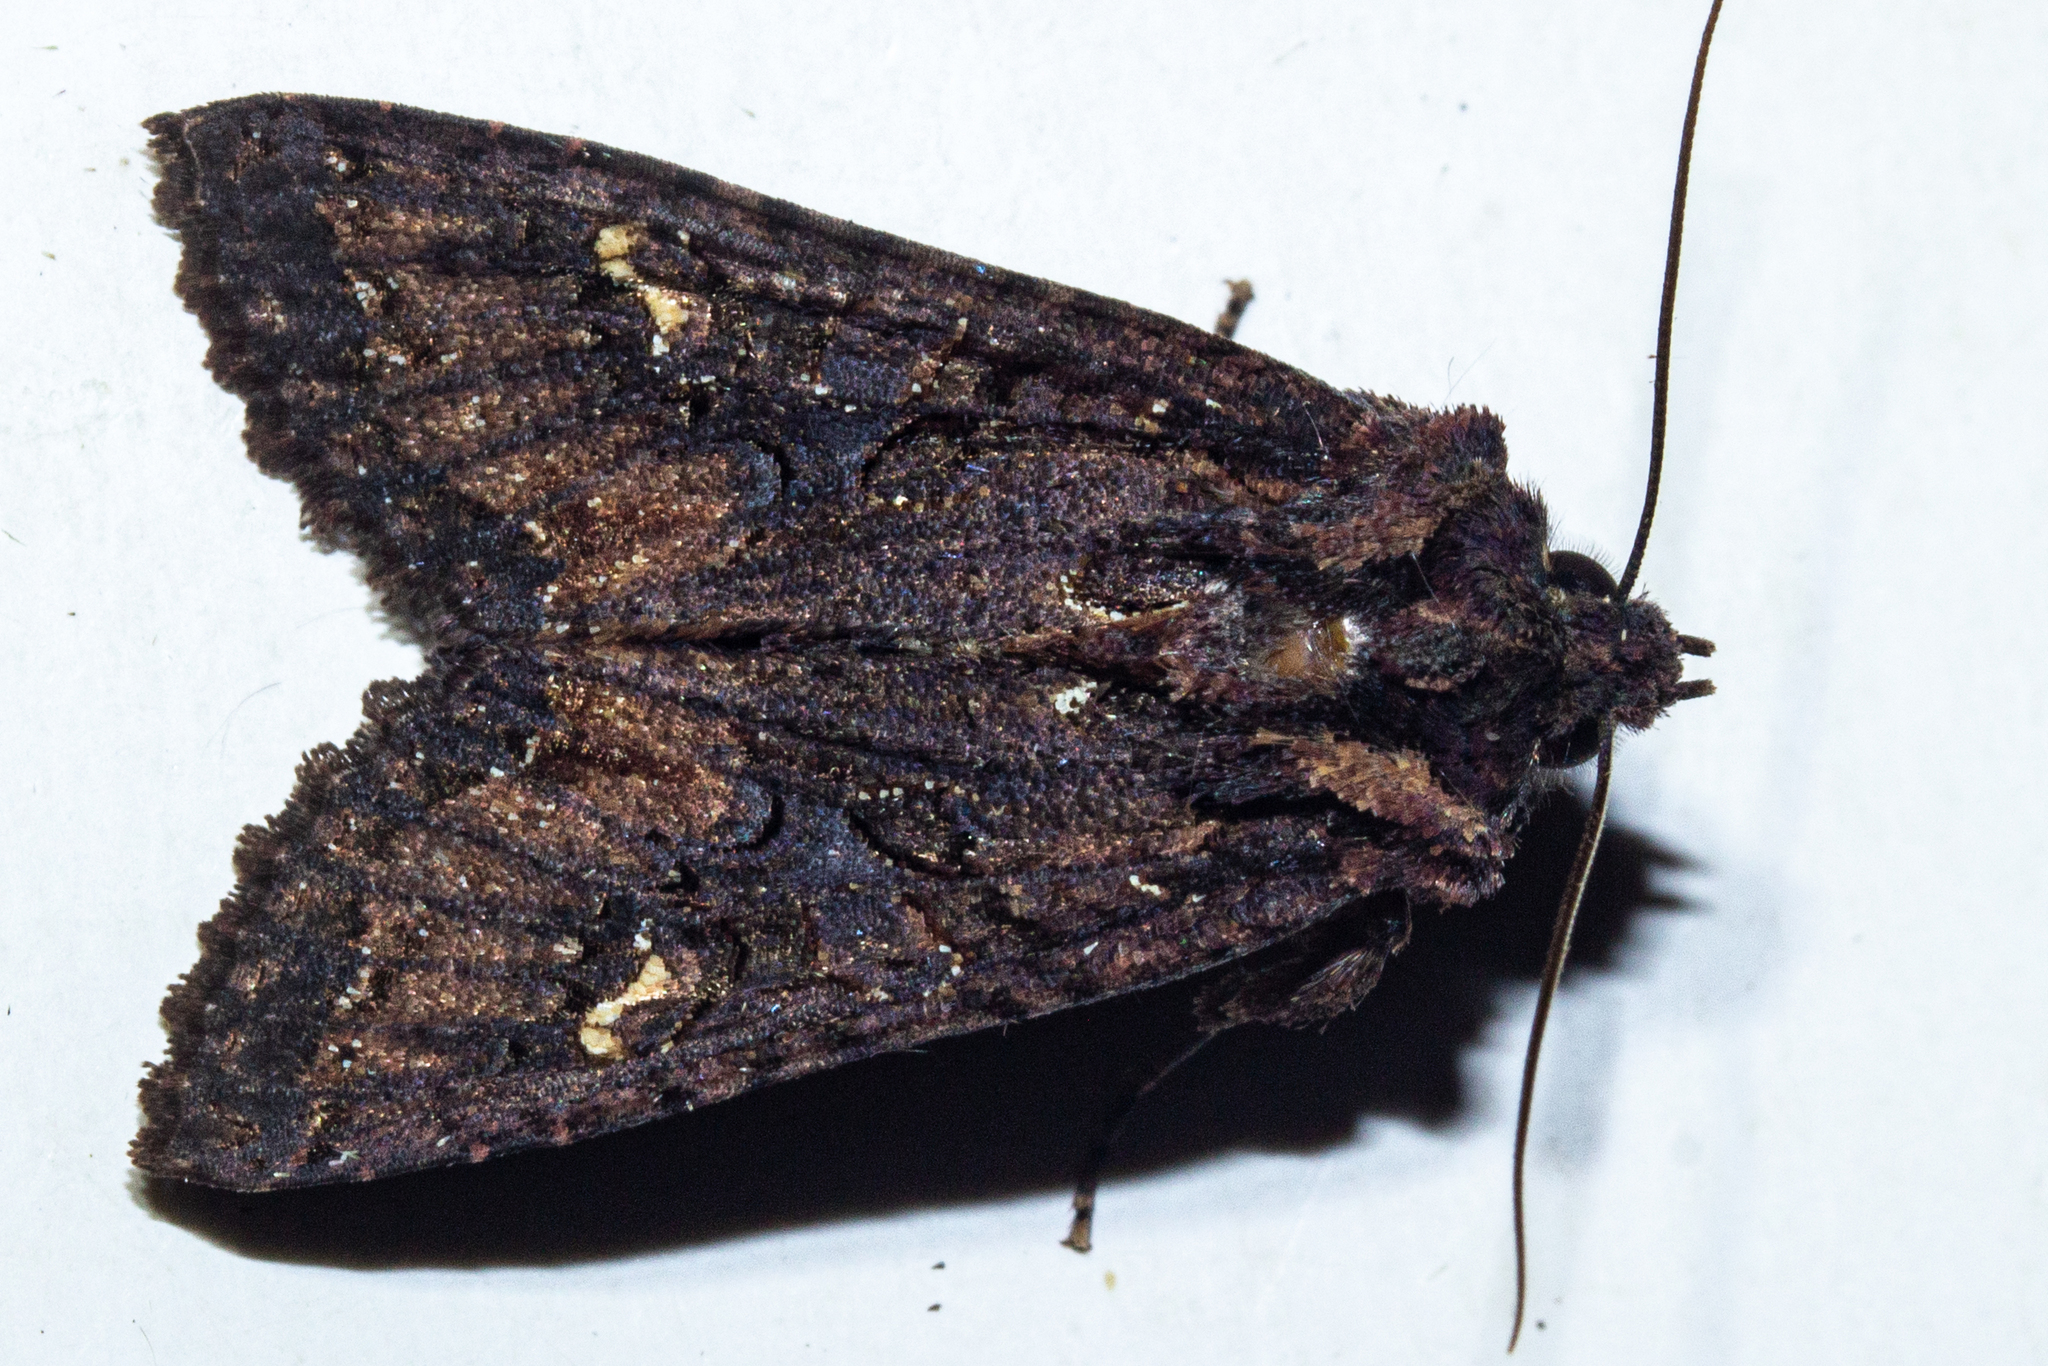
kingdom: Animalia
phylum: Arthropoda
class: Insecta
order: Lepidoptera
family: Noctuidae
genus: Meterana
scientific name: Meterana dotata
